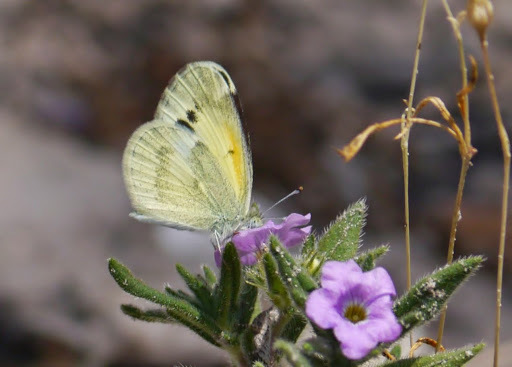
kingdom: Animalia
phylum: Arthropoda
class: Insecta
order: Lepidoptera
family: Pieridae
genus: Nathalis
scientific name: Nathalis iole
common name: Dainty sulphur
